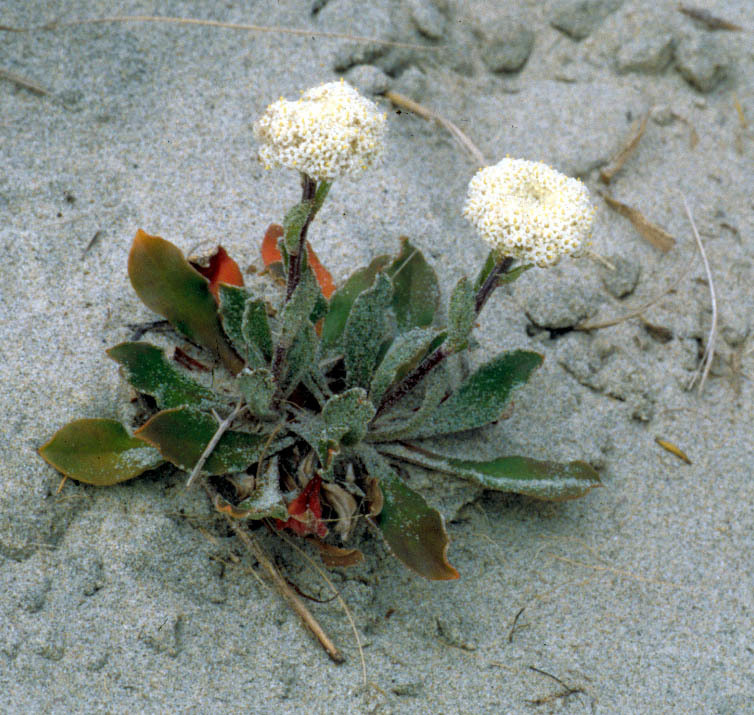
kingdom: Plantae
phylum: Tracheophyta
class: Magnoliopsida
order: Asterales
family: Asteraceae
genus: Craspedia
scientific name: Craspedia robusta
